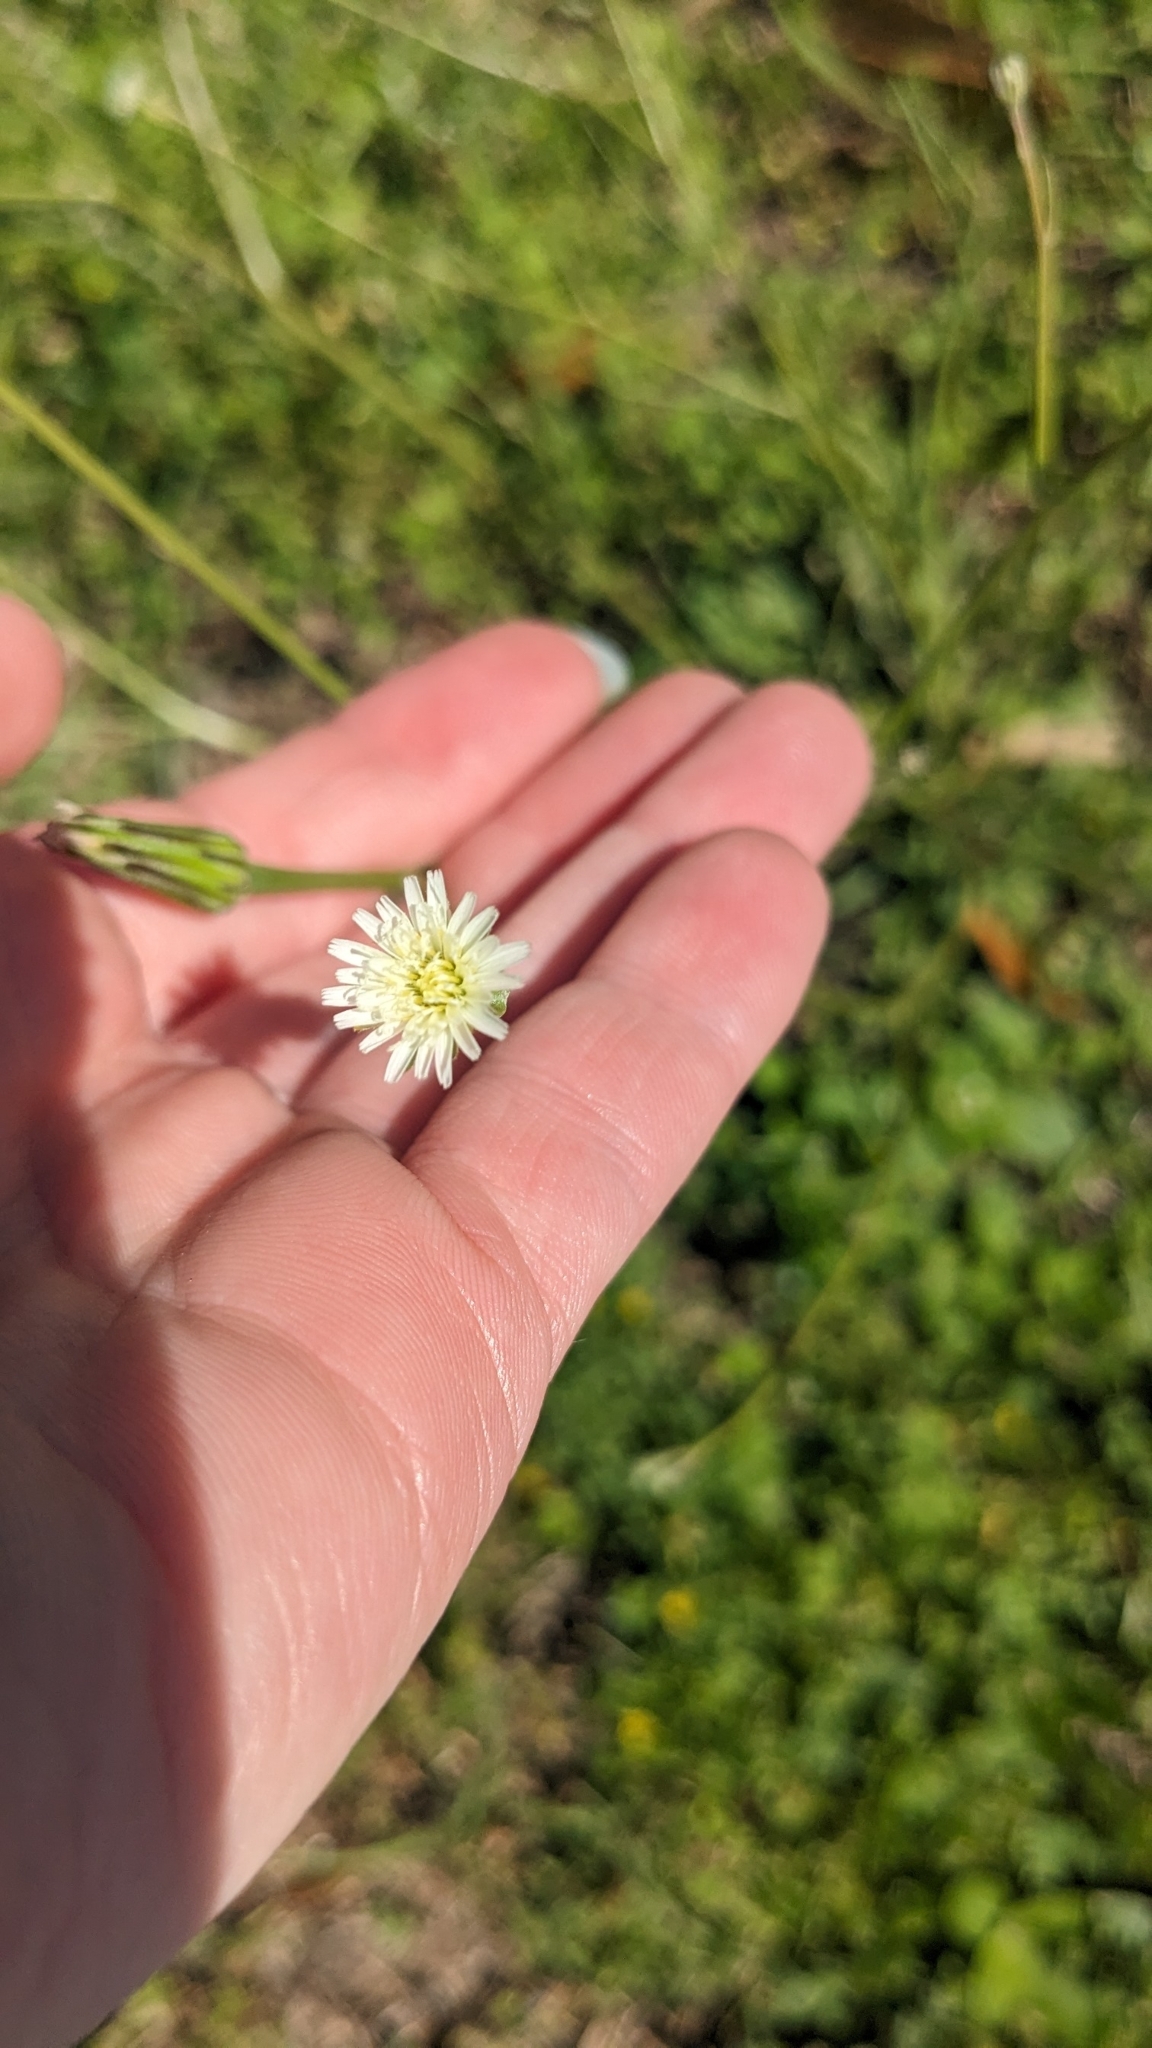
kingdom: Plantae
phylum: Tracheophyta
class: Magnoliopsida
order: Asterales
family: Asteraceae
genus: Hypochaeris
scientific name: Hypochaeris albiflora
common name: White flatweed
